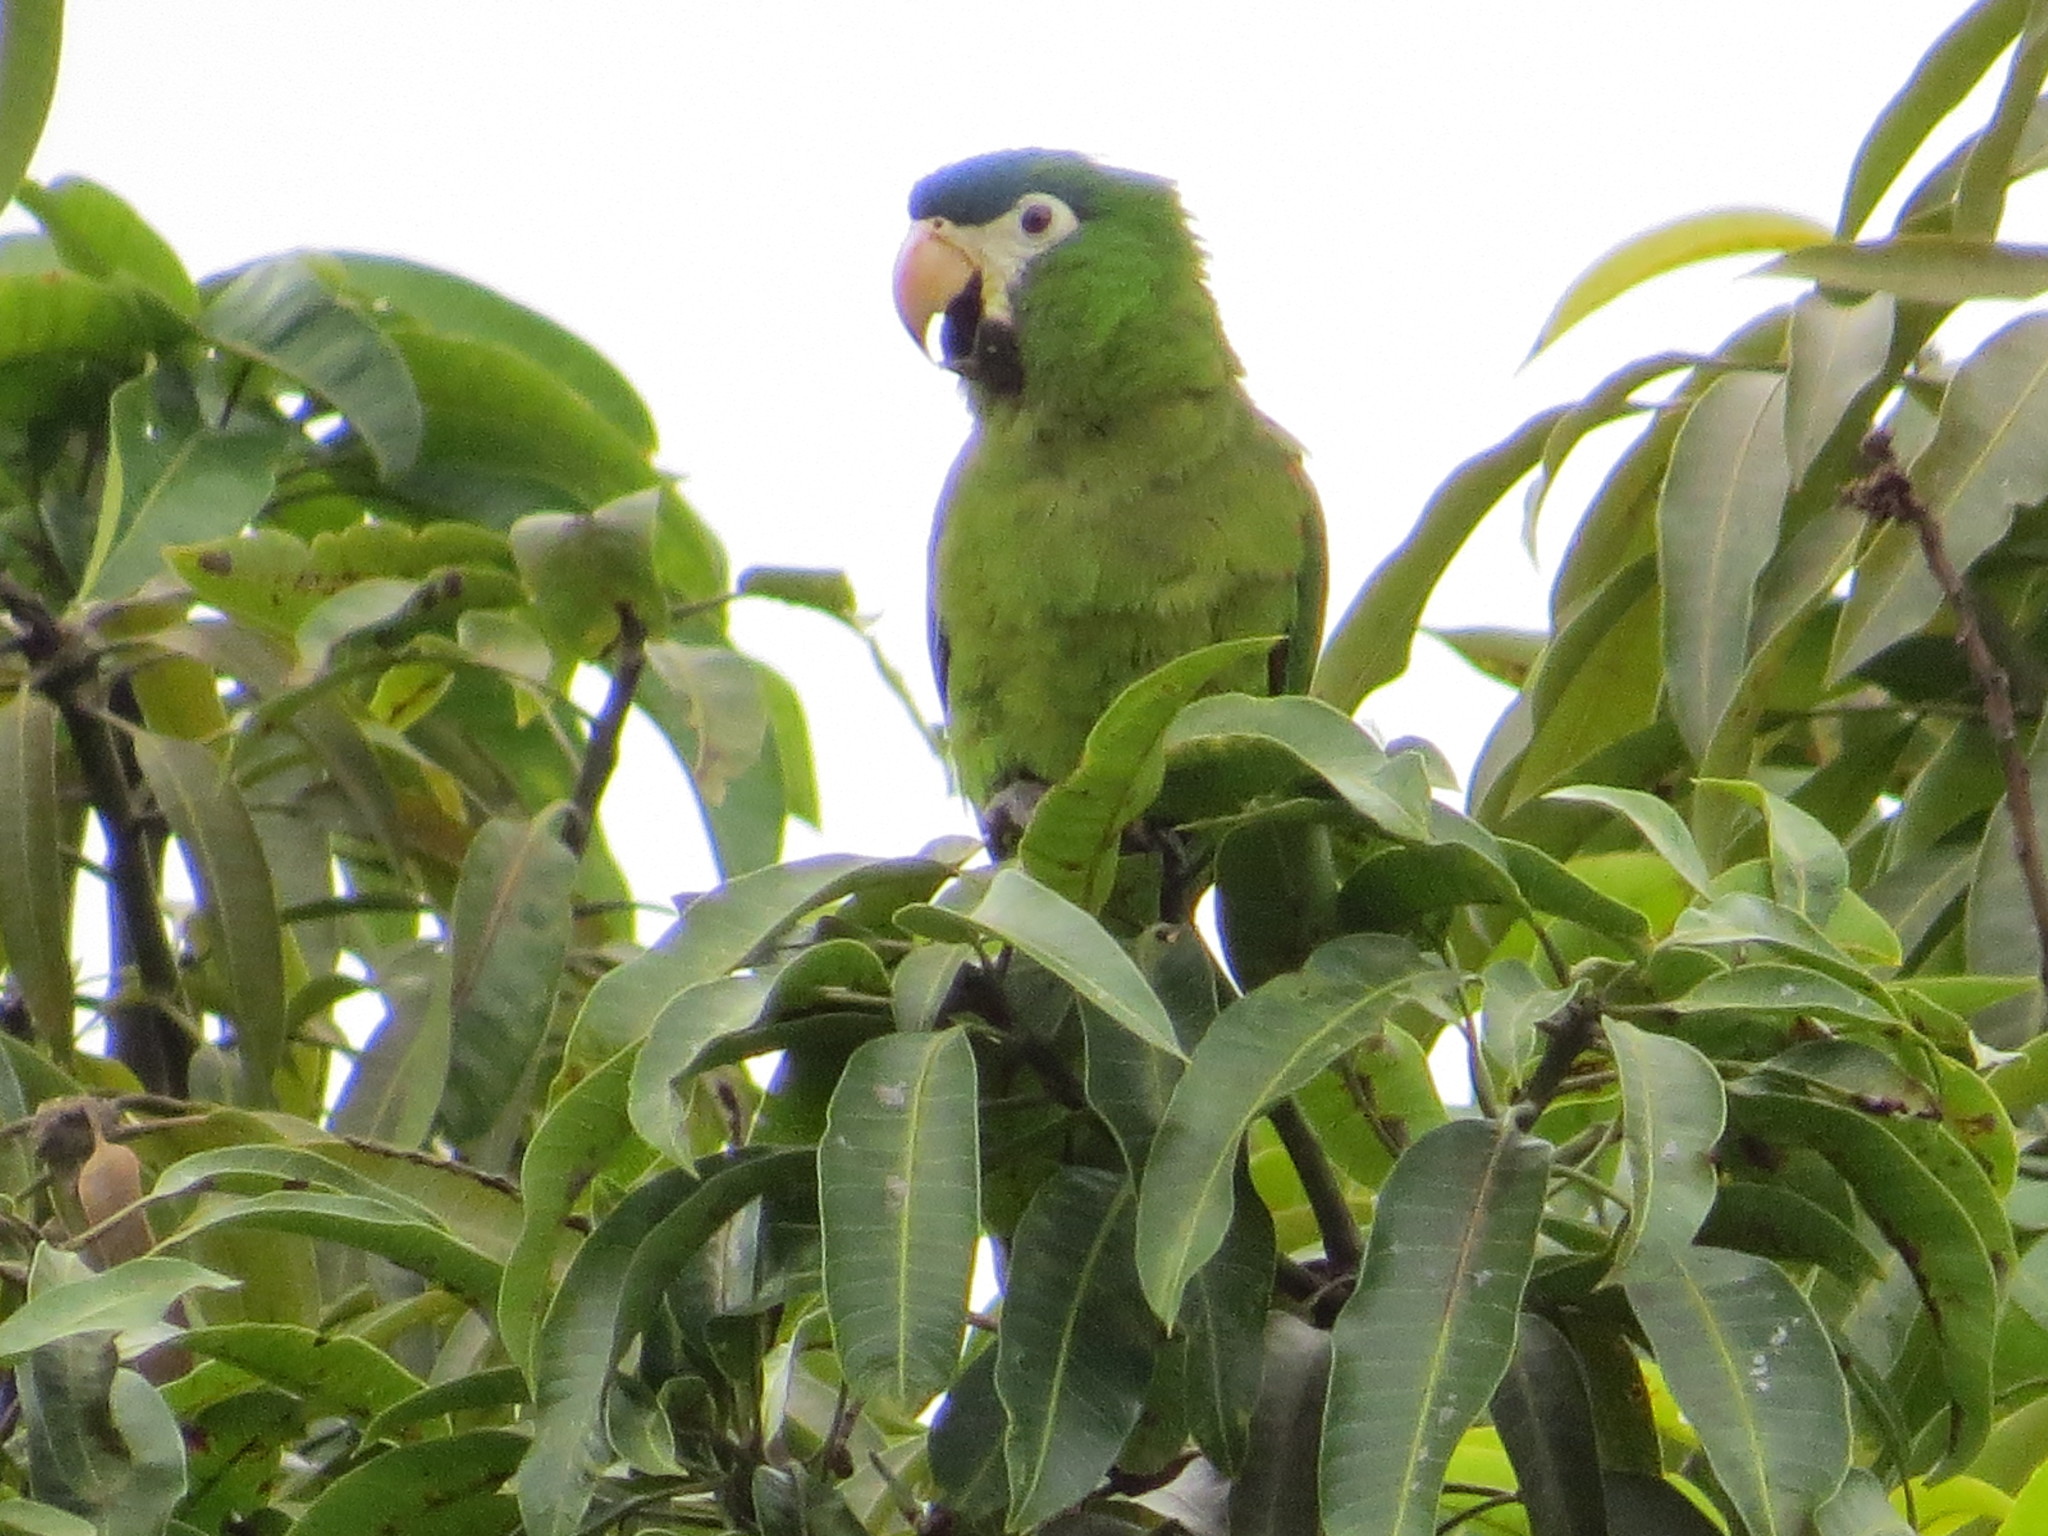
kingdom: Animalia
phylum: Chordata
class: Aves
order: Psittaciformes
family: Psittacidae
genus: Diopsittaca
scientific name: Diopsittaca nobilis
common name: Red-shouldered macaw
